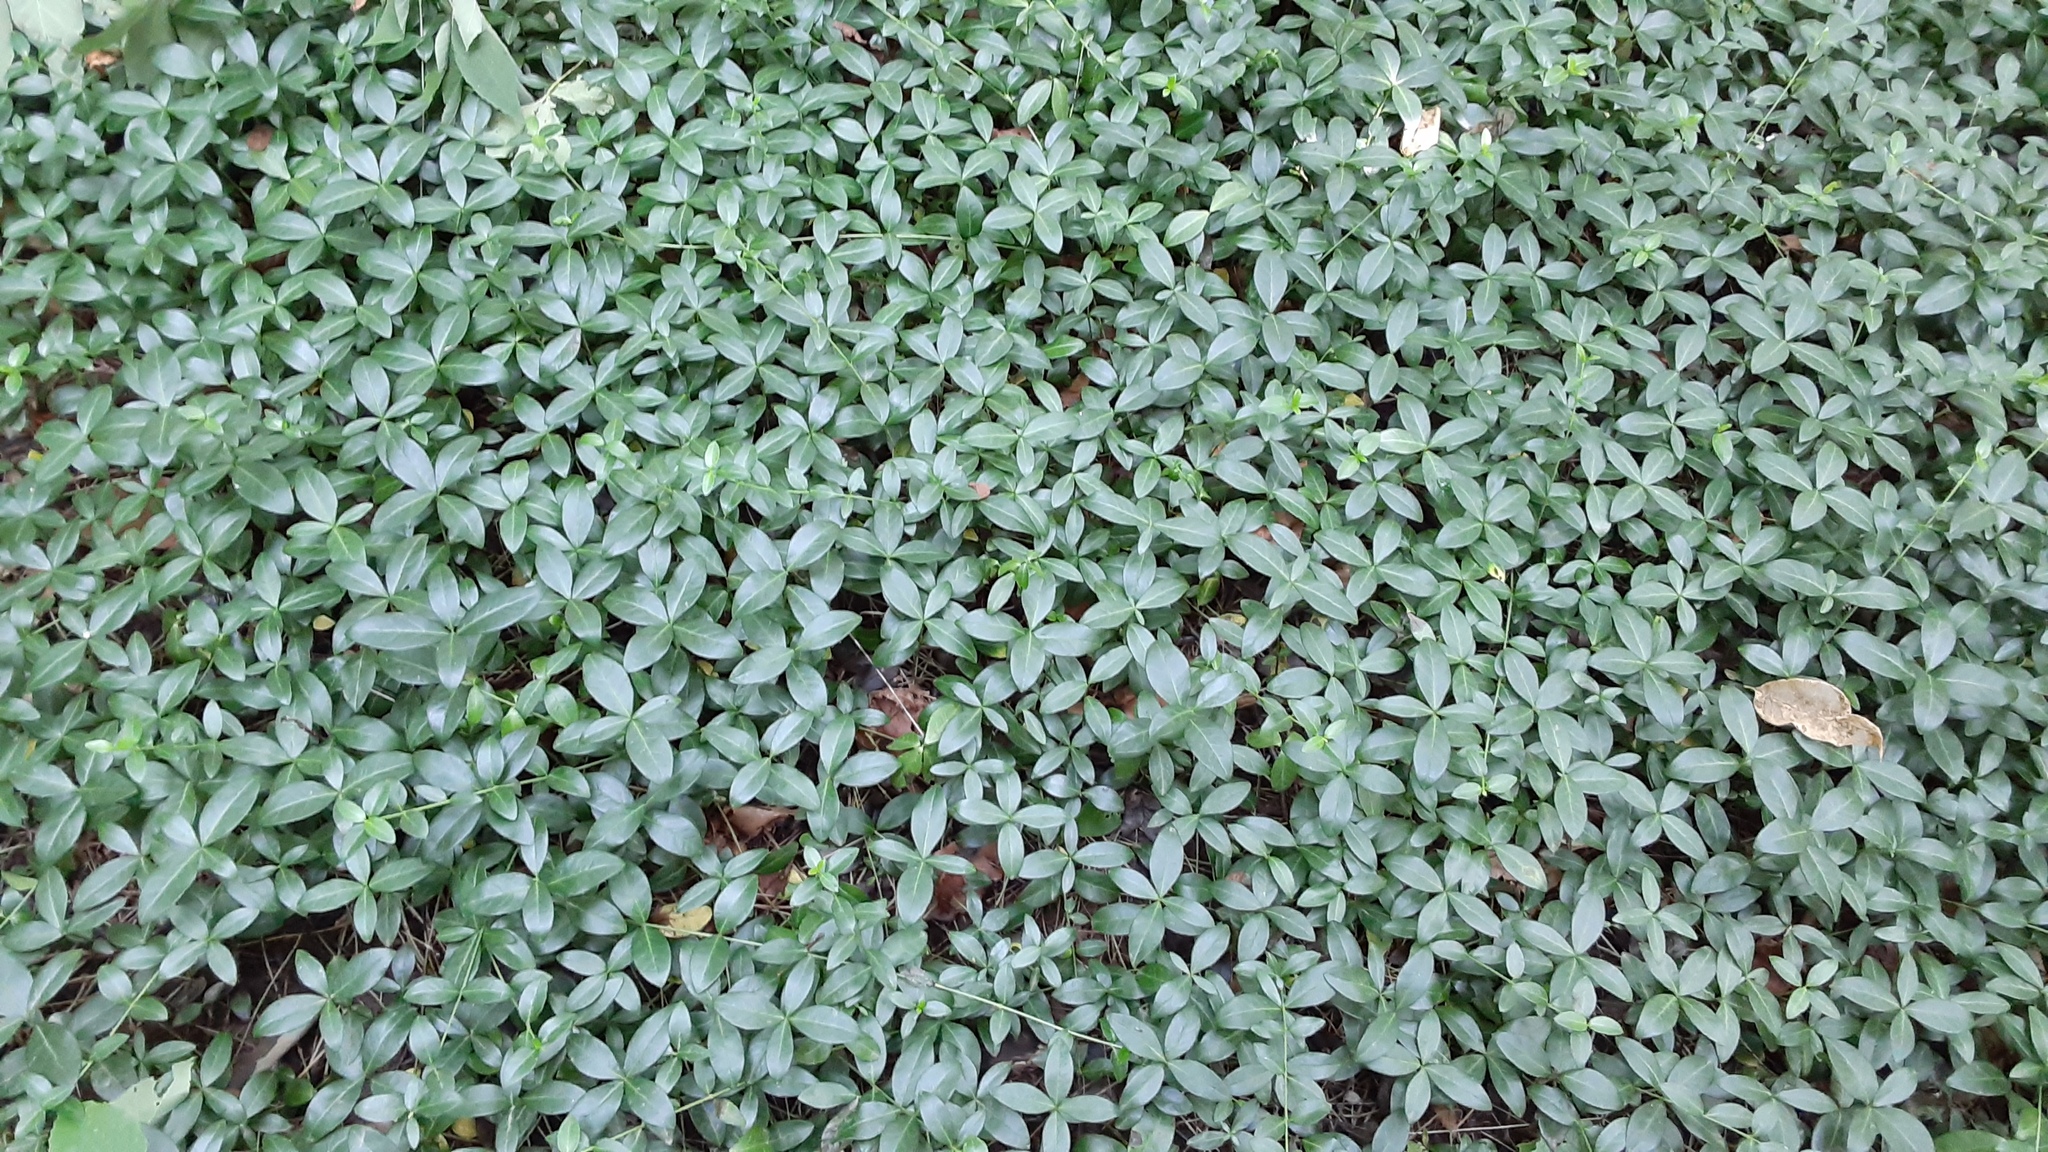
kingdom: Plantae
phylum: Tracheophyta
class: Magnoliopsida
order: Gentianales
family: Apocynaceae
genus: Vinca
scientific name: Vinca minor
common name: Lesser periwinkle
